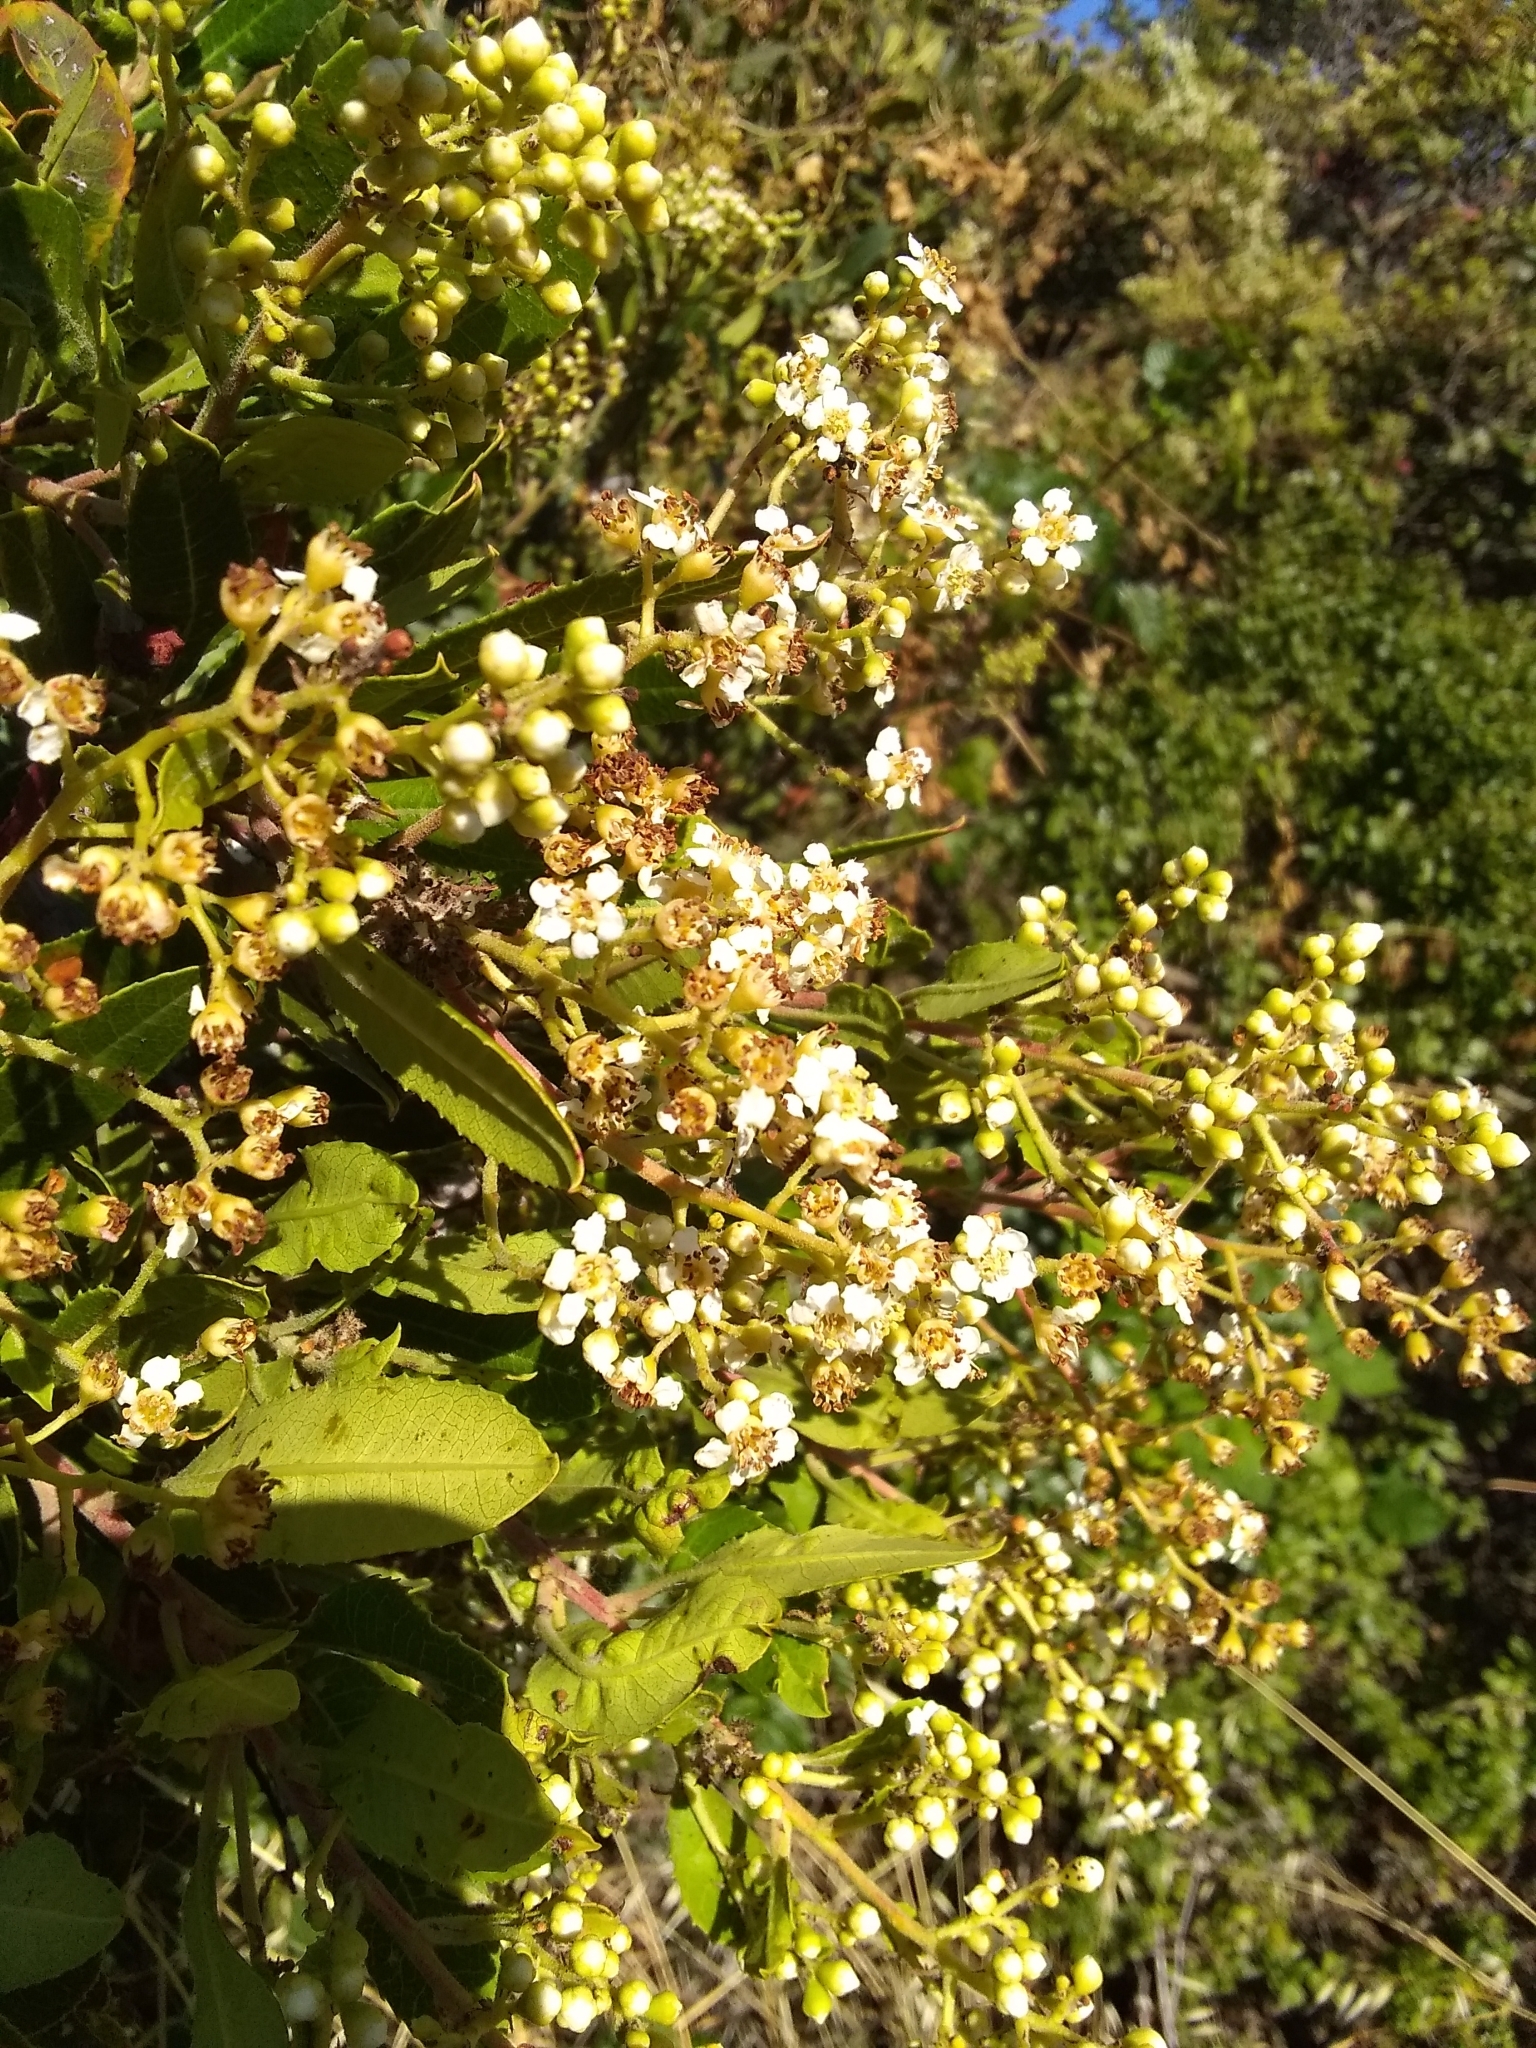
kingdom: Plantae
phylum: Tracheophyta
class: Magnoliopsida
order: Rosales
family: Rosaceae
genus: Heteromeles
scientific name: Heteromeles arbutifolia
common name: California-holly
